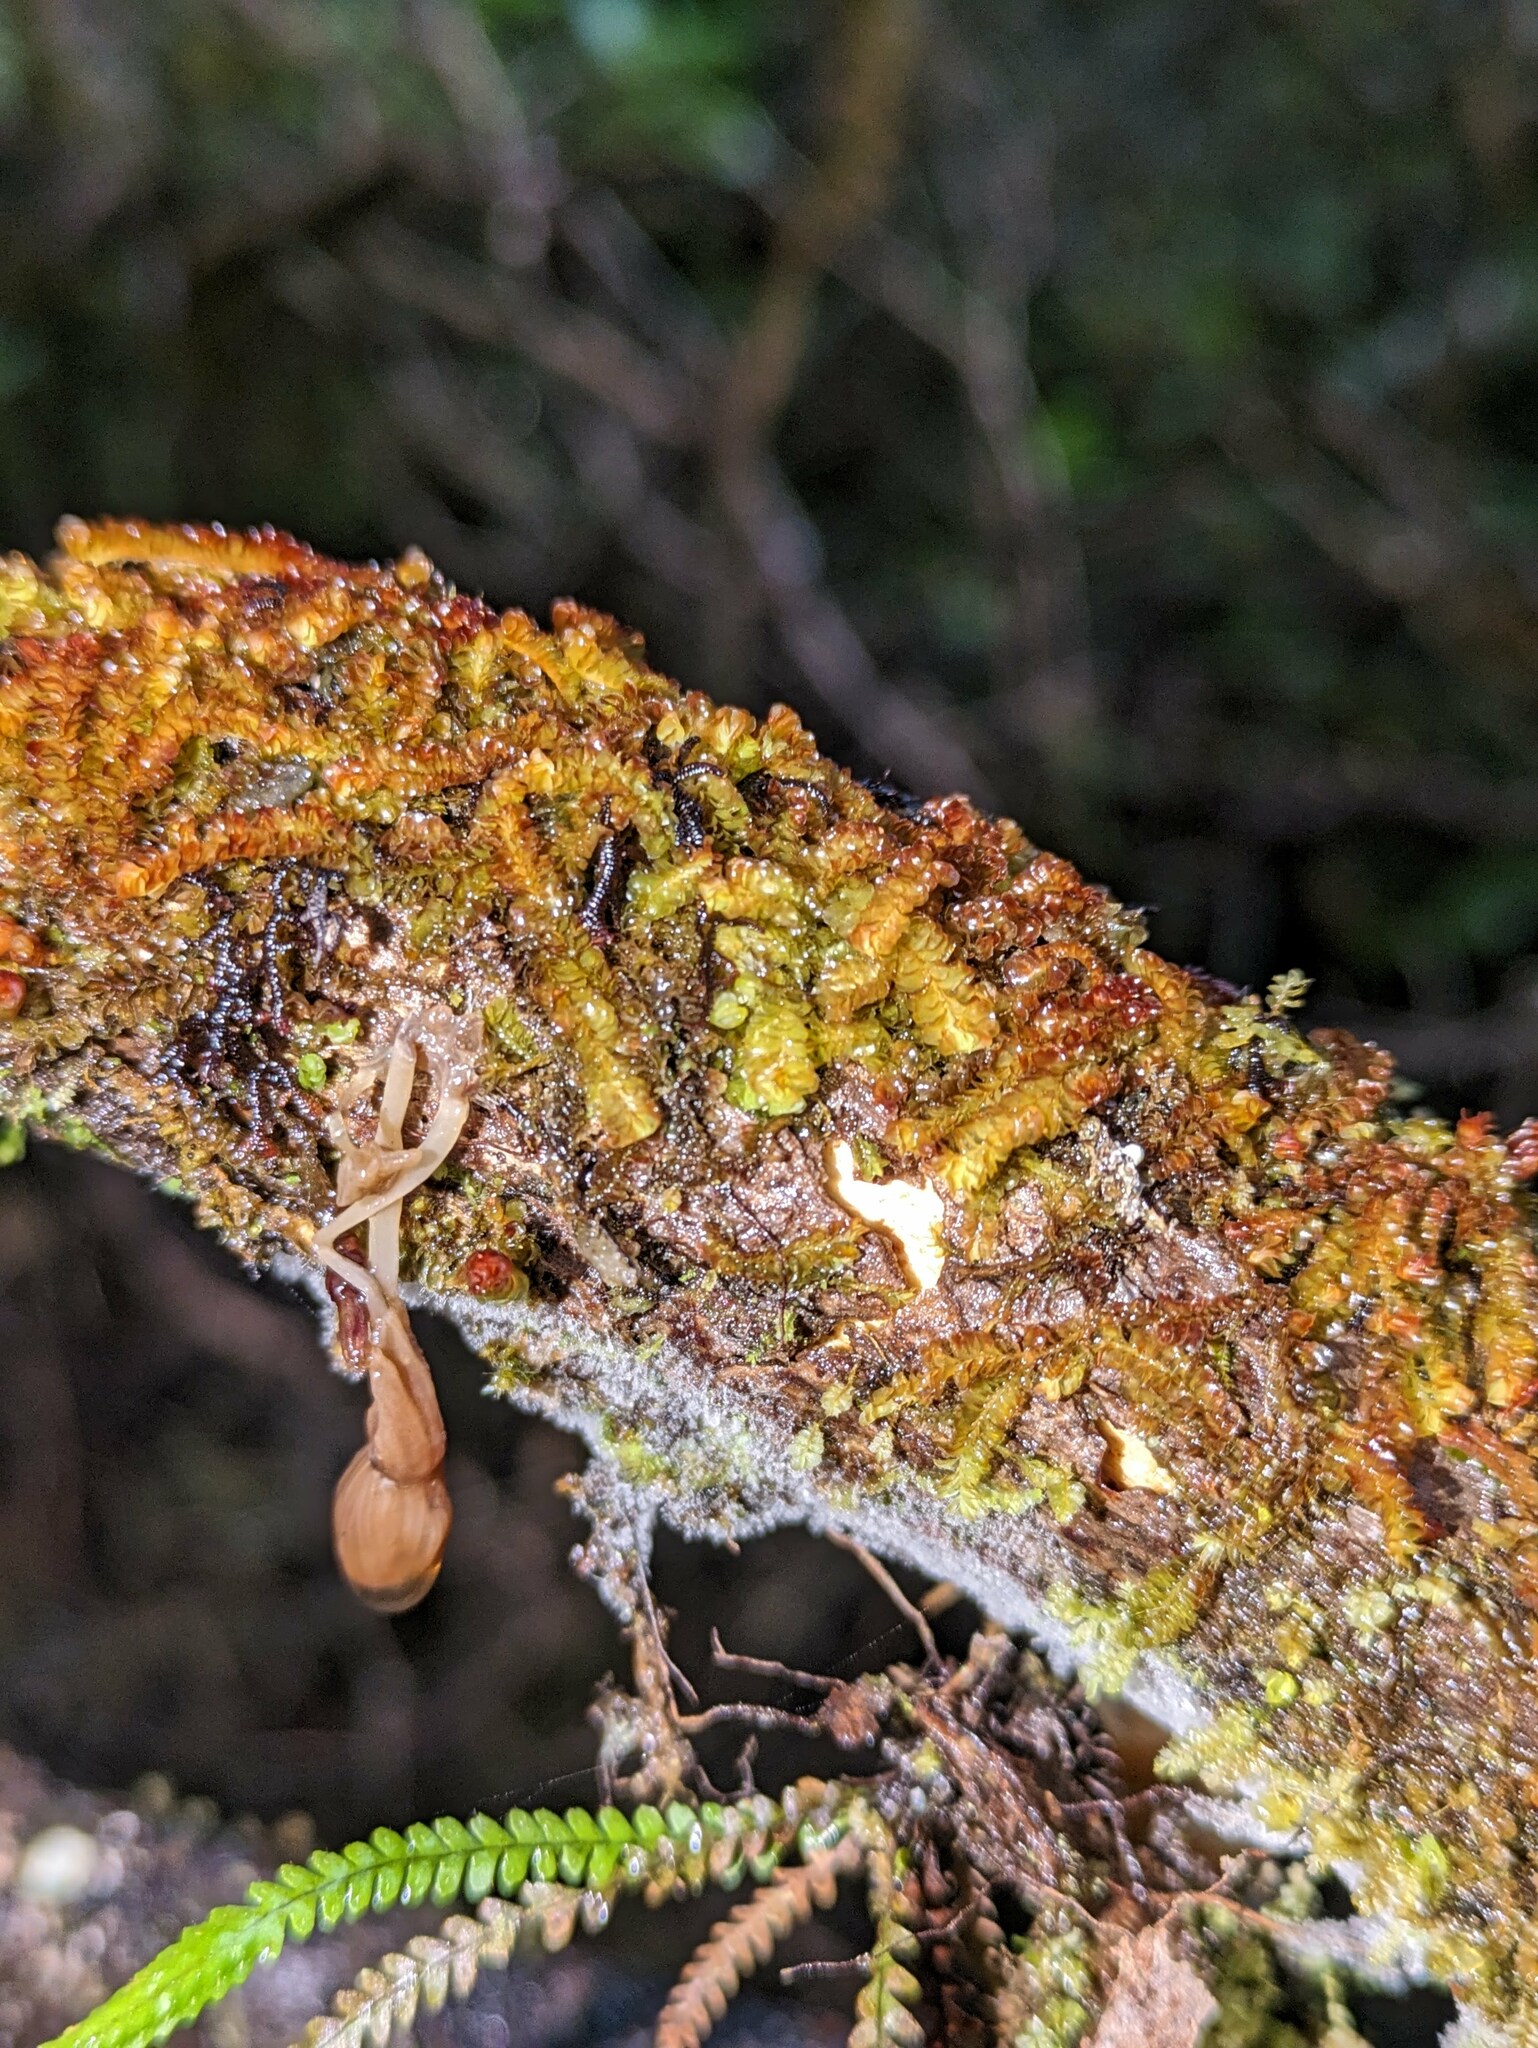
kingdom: Plantae
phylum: Marchantiophyta
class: Jungermanniopsida
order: Jungermanniales
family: Adelanthaceae
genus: Cuspidatula
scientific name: Cuspidatula robusta
